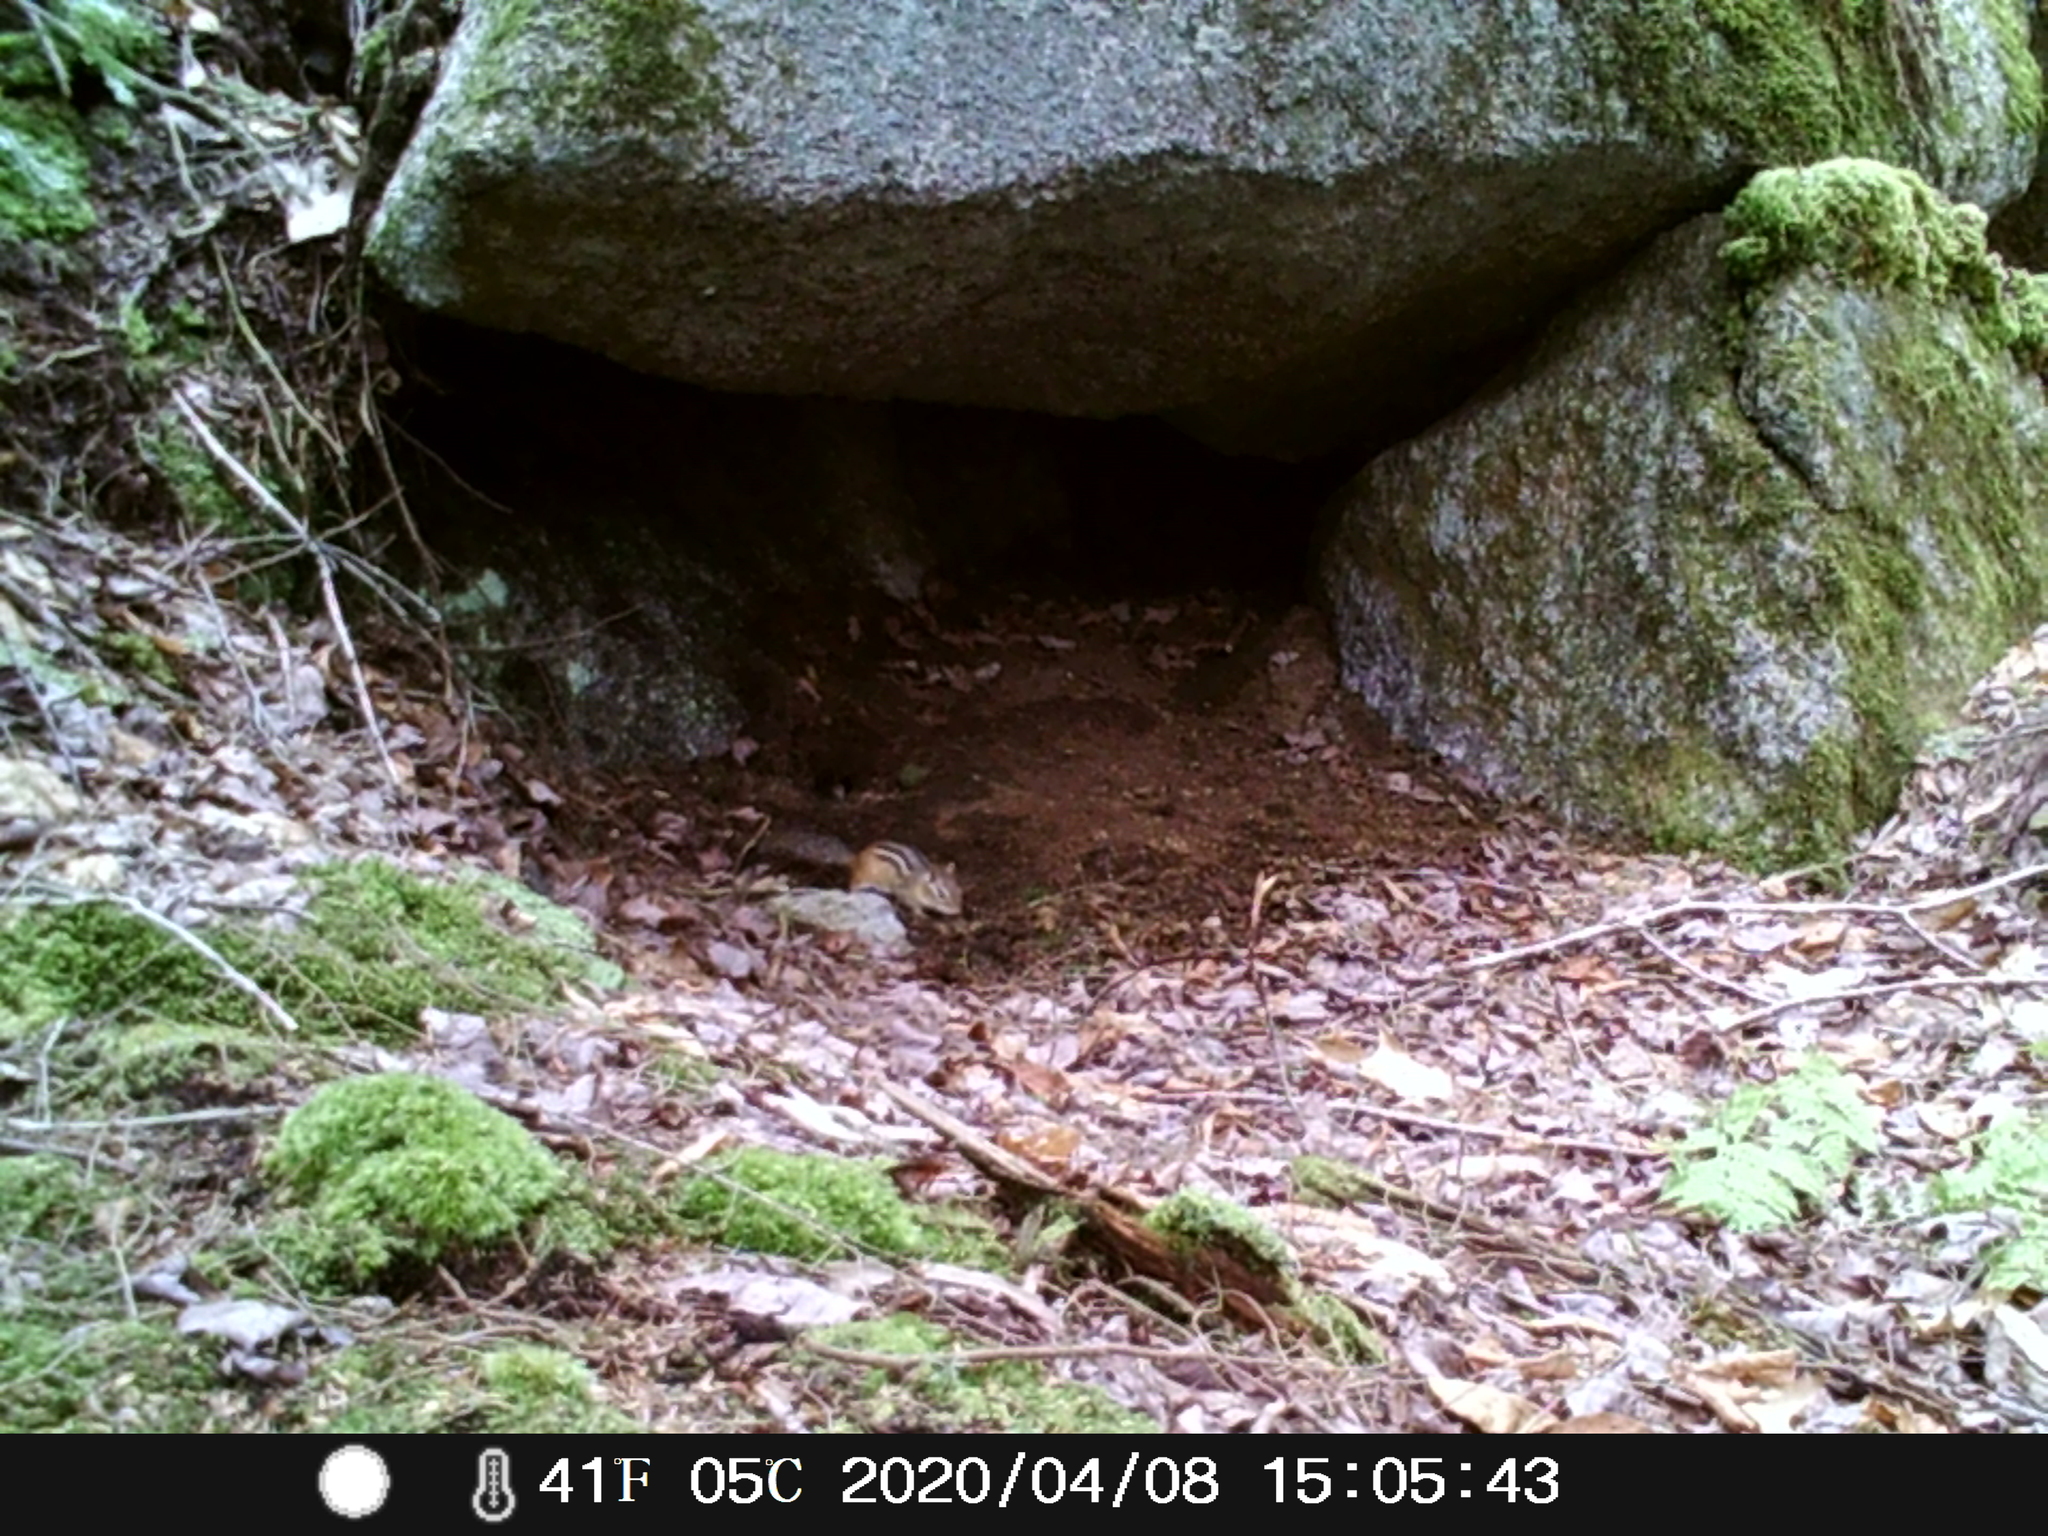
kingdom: Animalia
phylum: Chordata
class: Mammalia
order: Rodentia
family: Sciuridae
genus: Tamias
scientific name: Tamias striatus
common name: Eastern chipmunk
